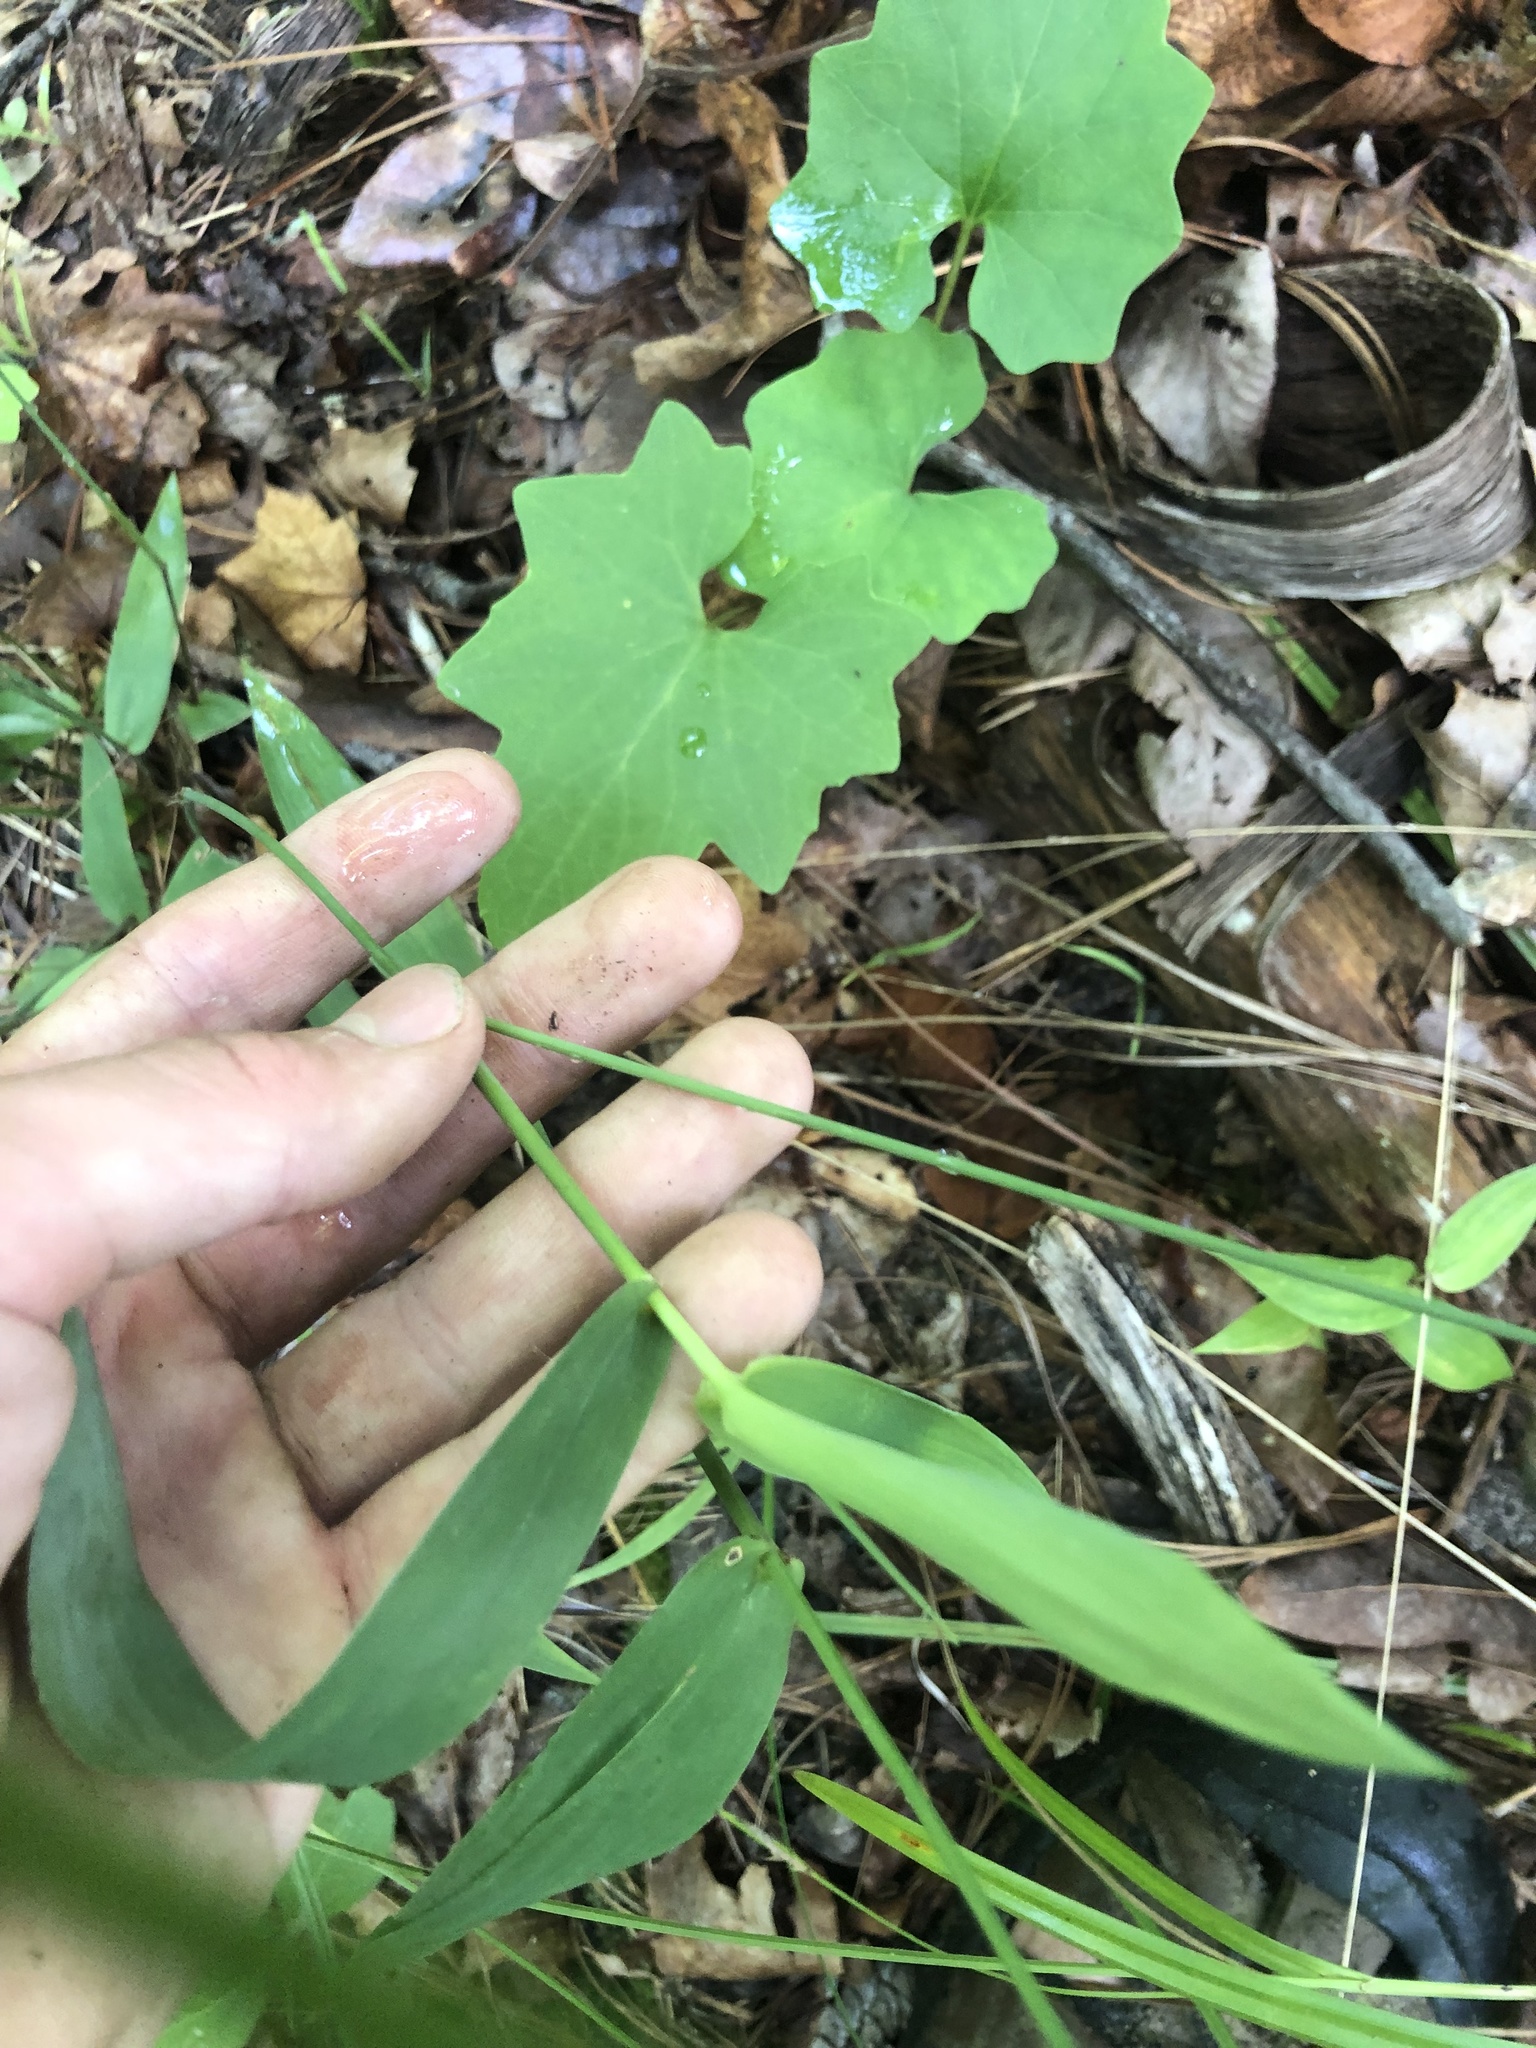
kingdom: Plantae
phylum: Tracheophyta
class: Magnoliopsida
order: Asterales
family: Asteraceae
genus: Arnoglossum
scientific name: Arnoglossum atriplicifolium
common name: Pale indian-plantain
